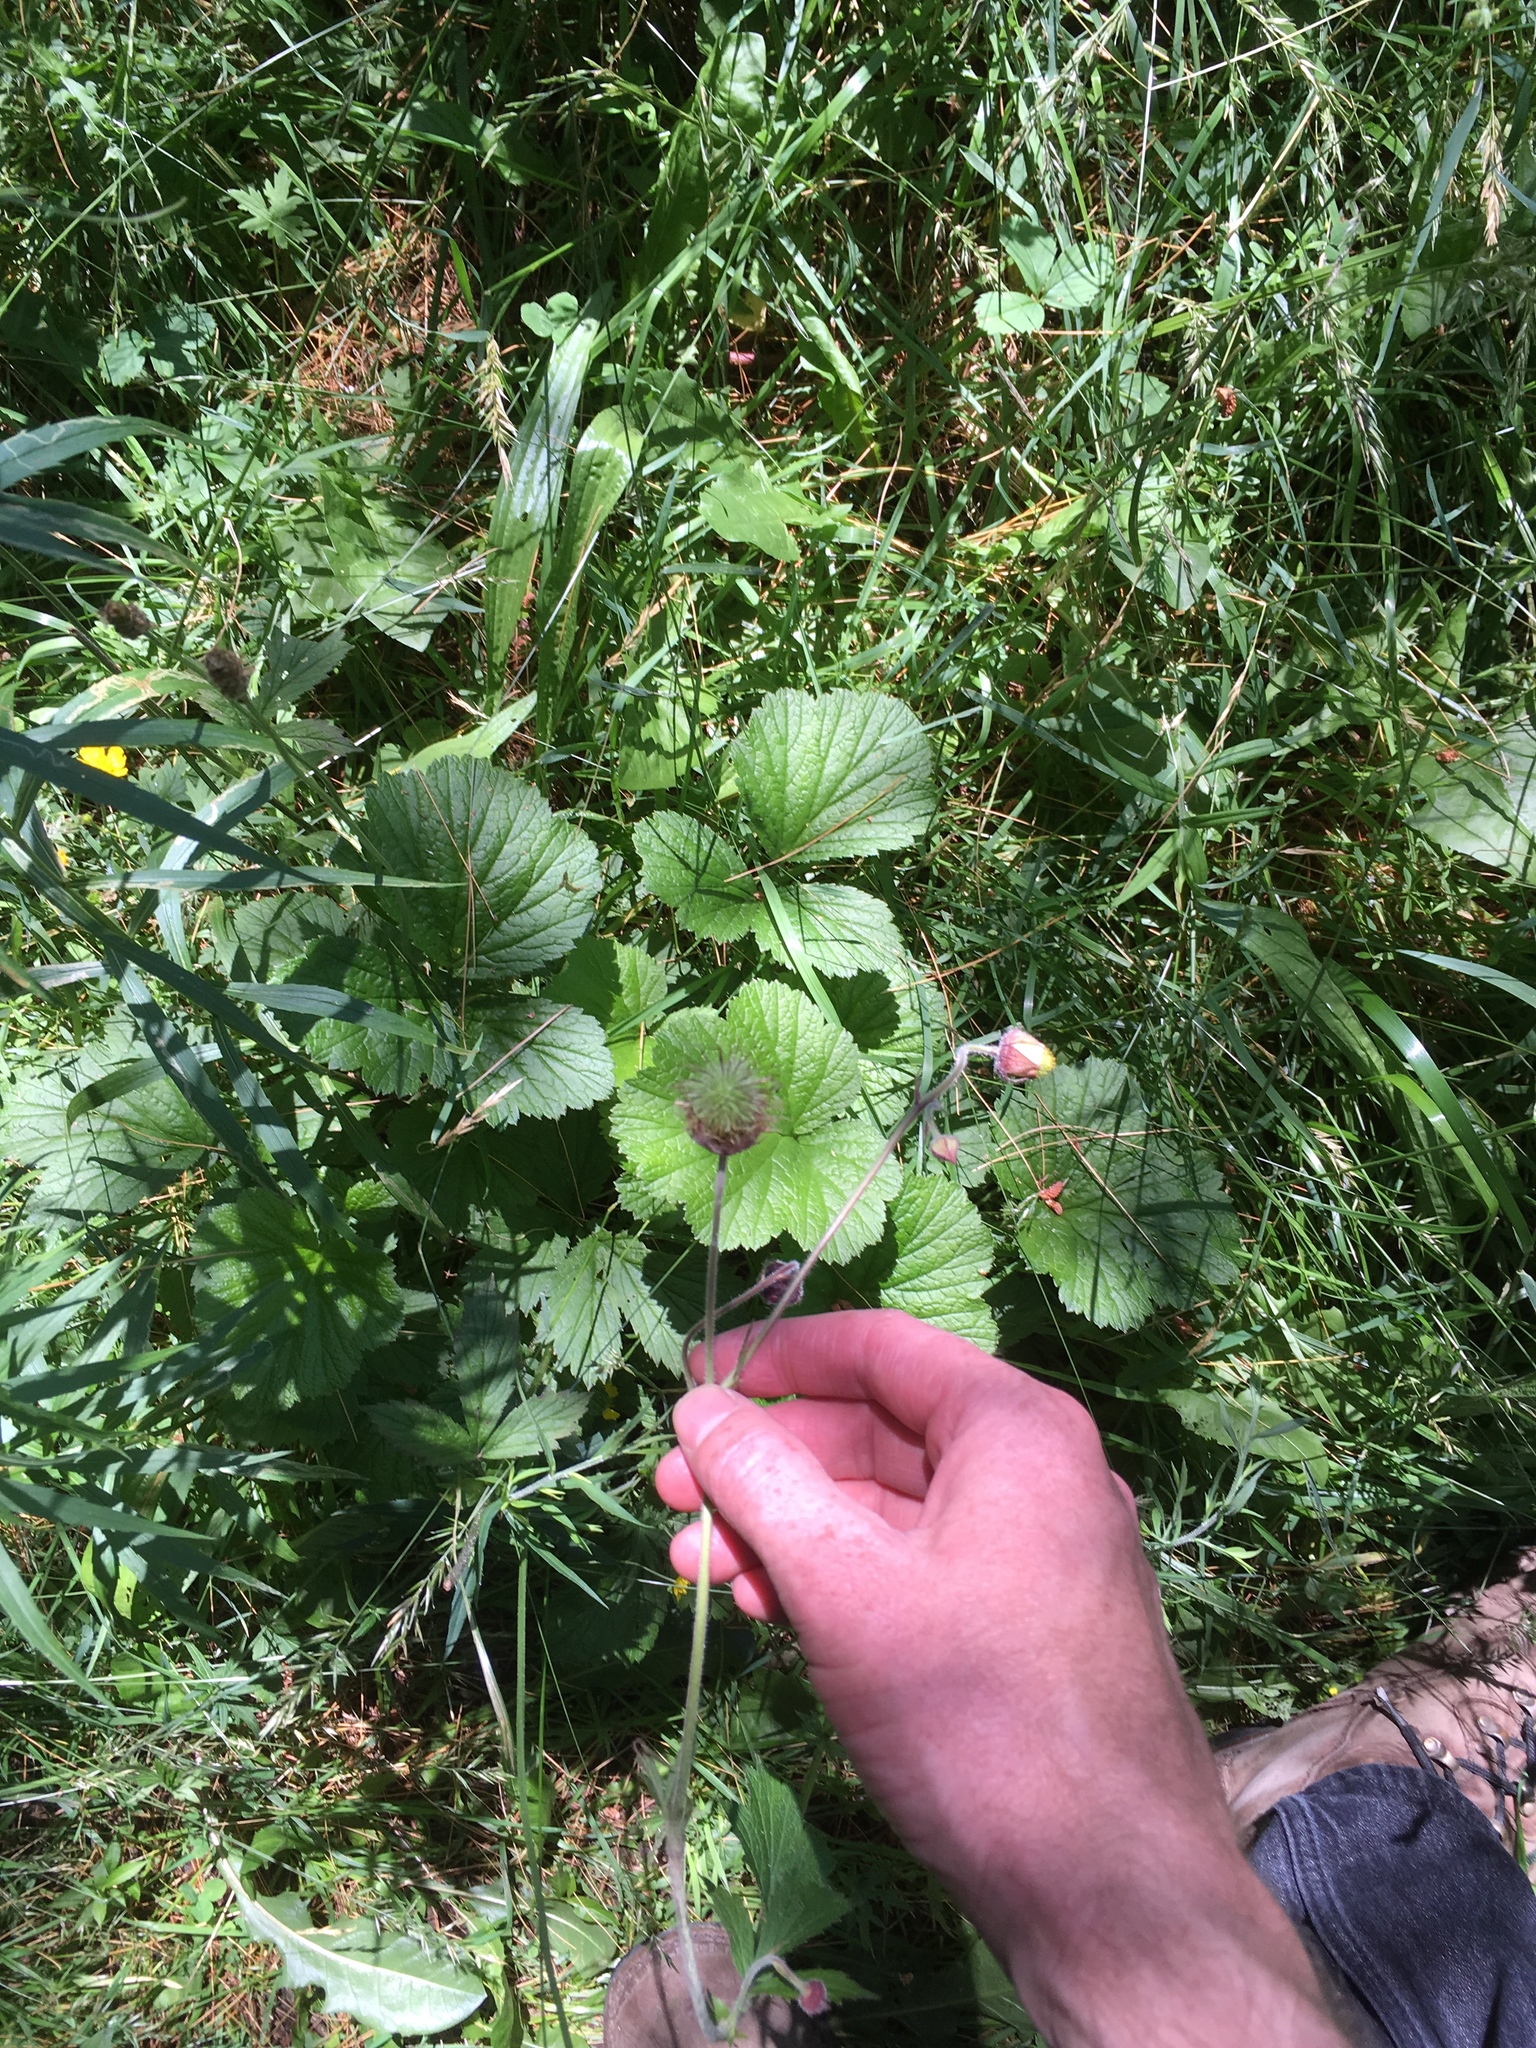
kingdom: Plantae
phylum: Tracheophyta
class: Magnoliopsida
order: Rosales
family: Rosaceae
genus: Geum
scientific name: Geum rivale
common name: Water avens
